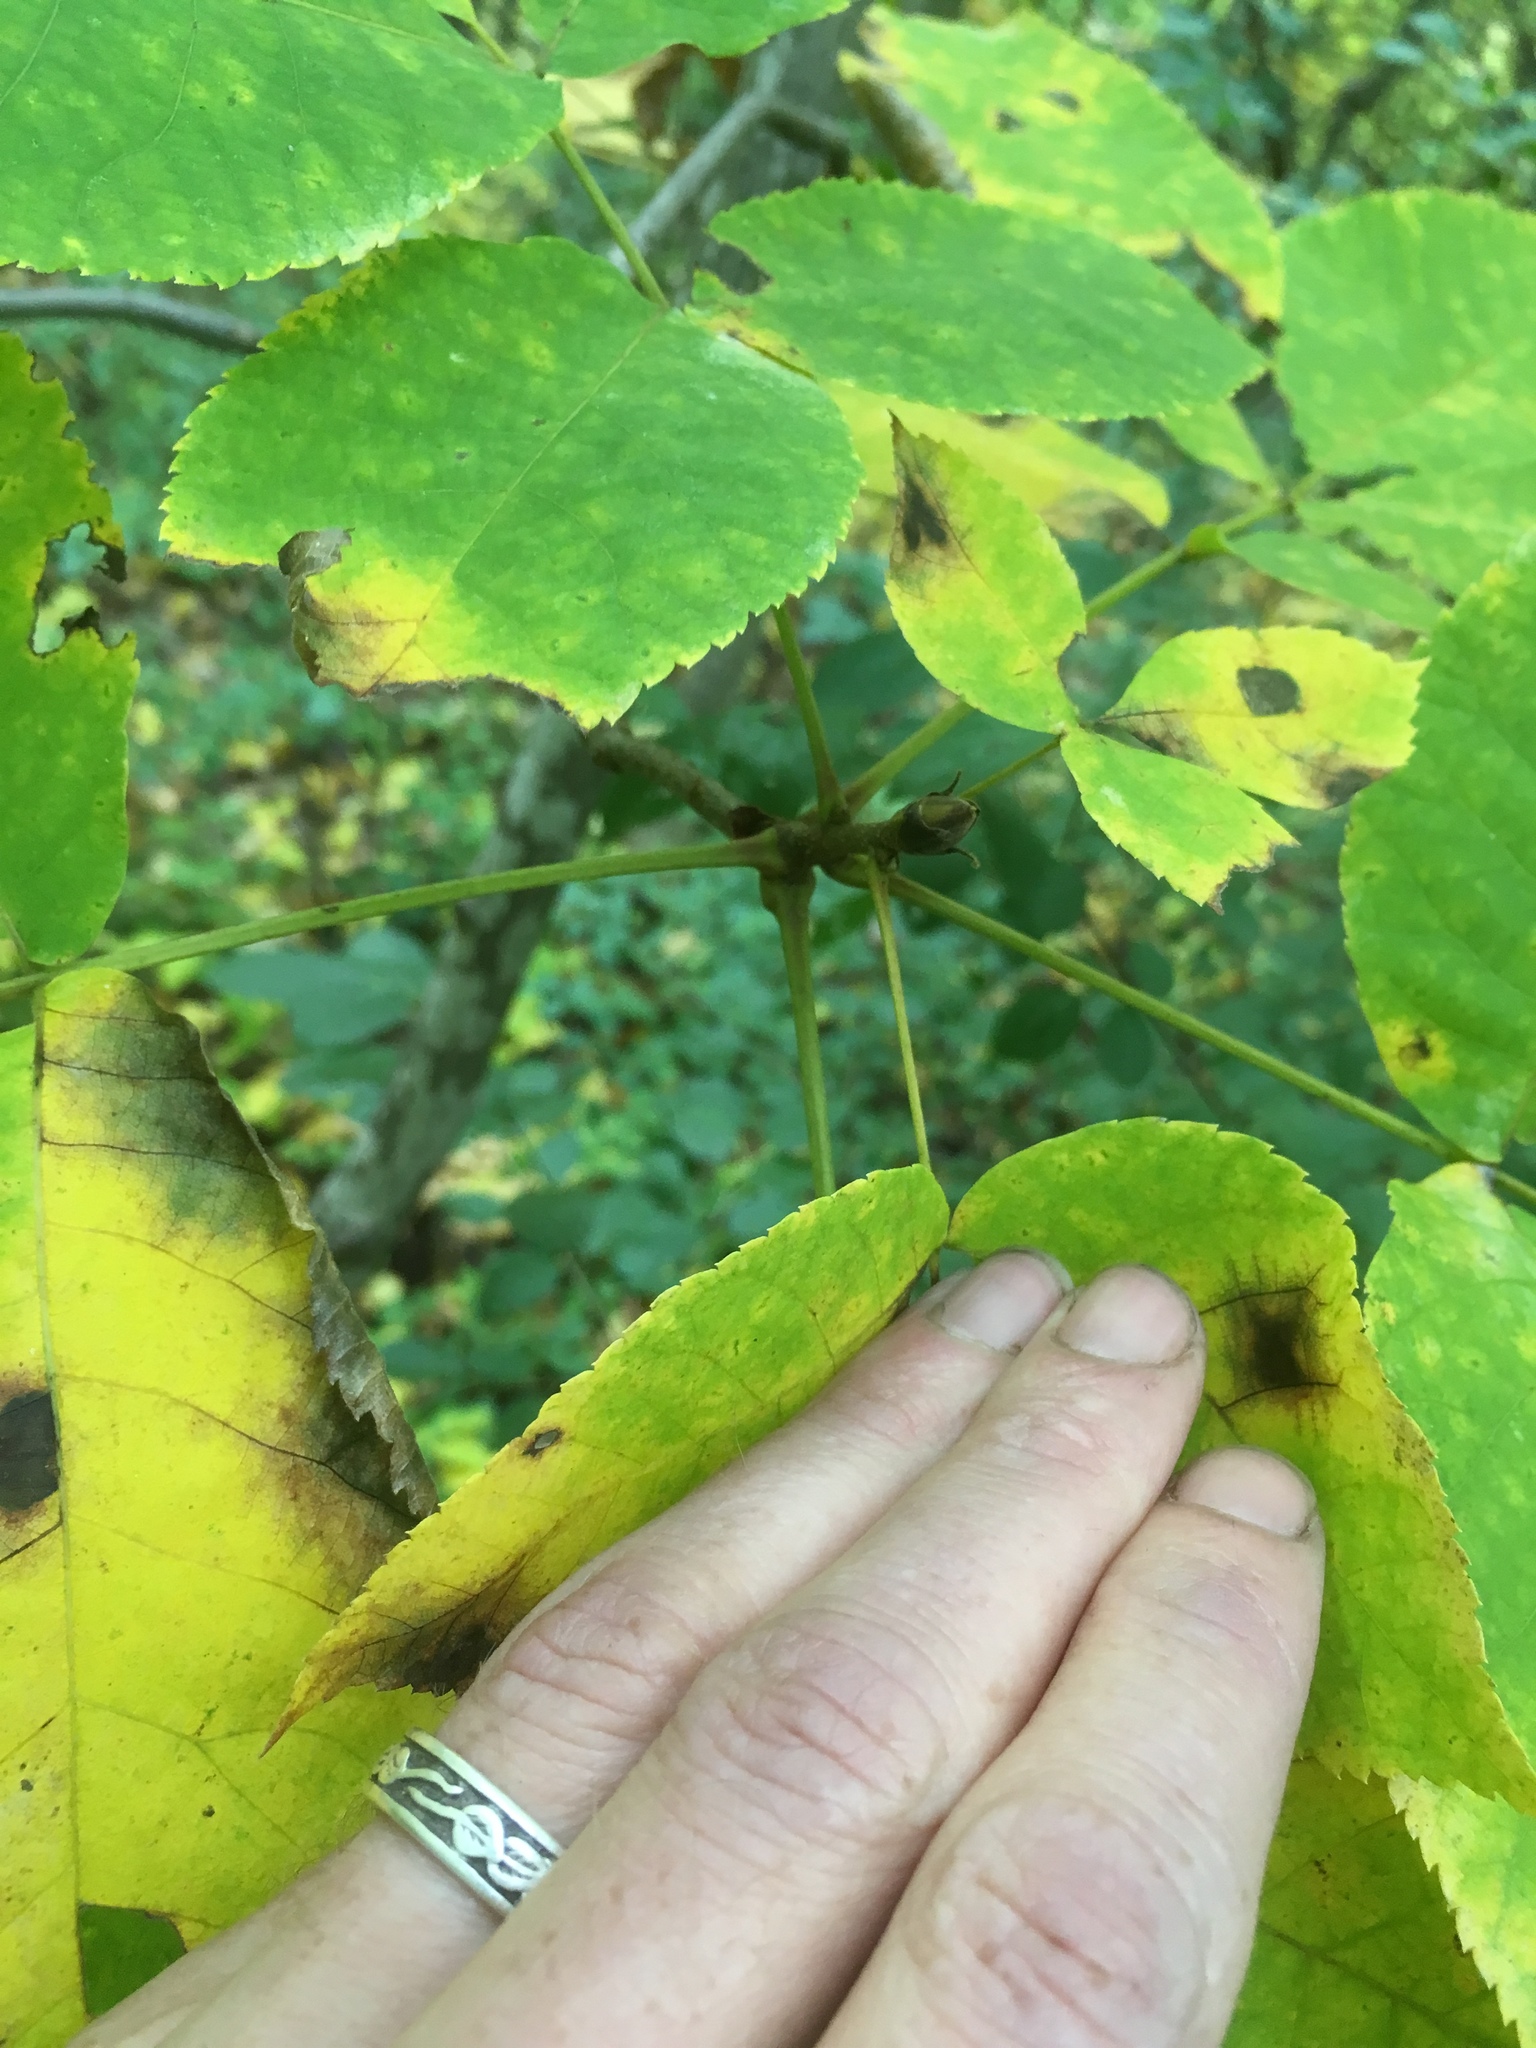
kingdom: Plantae
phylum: Tracheophyta
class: Magnoliopsida
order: Fagales
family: Juglandaceae
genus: Carya
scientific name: Carya ovata
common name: Shagbark hickory
